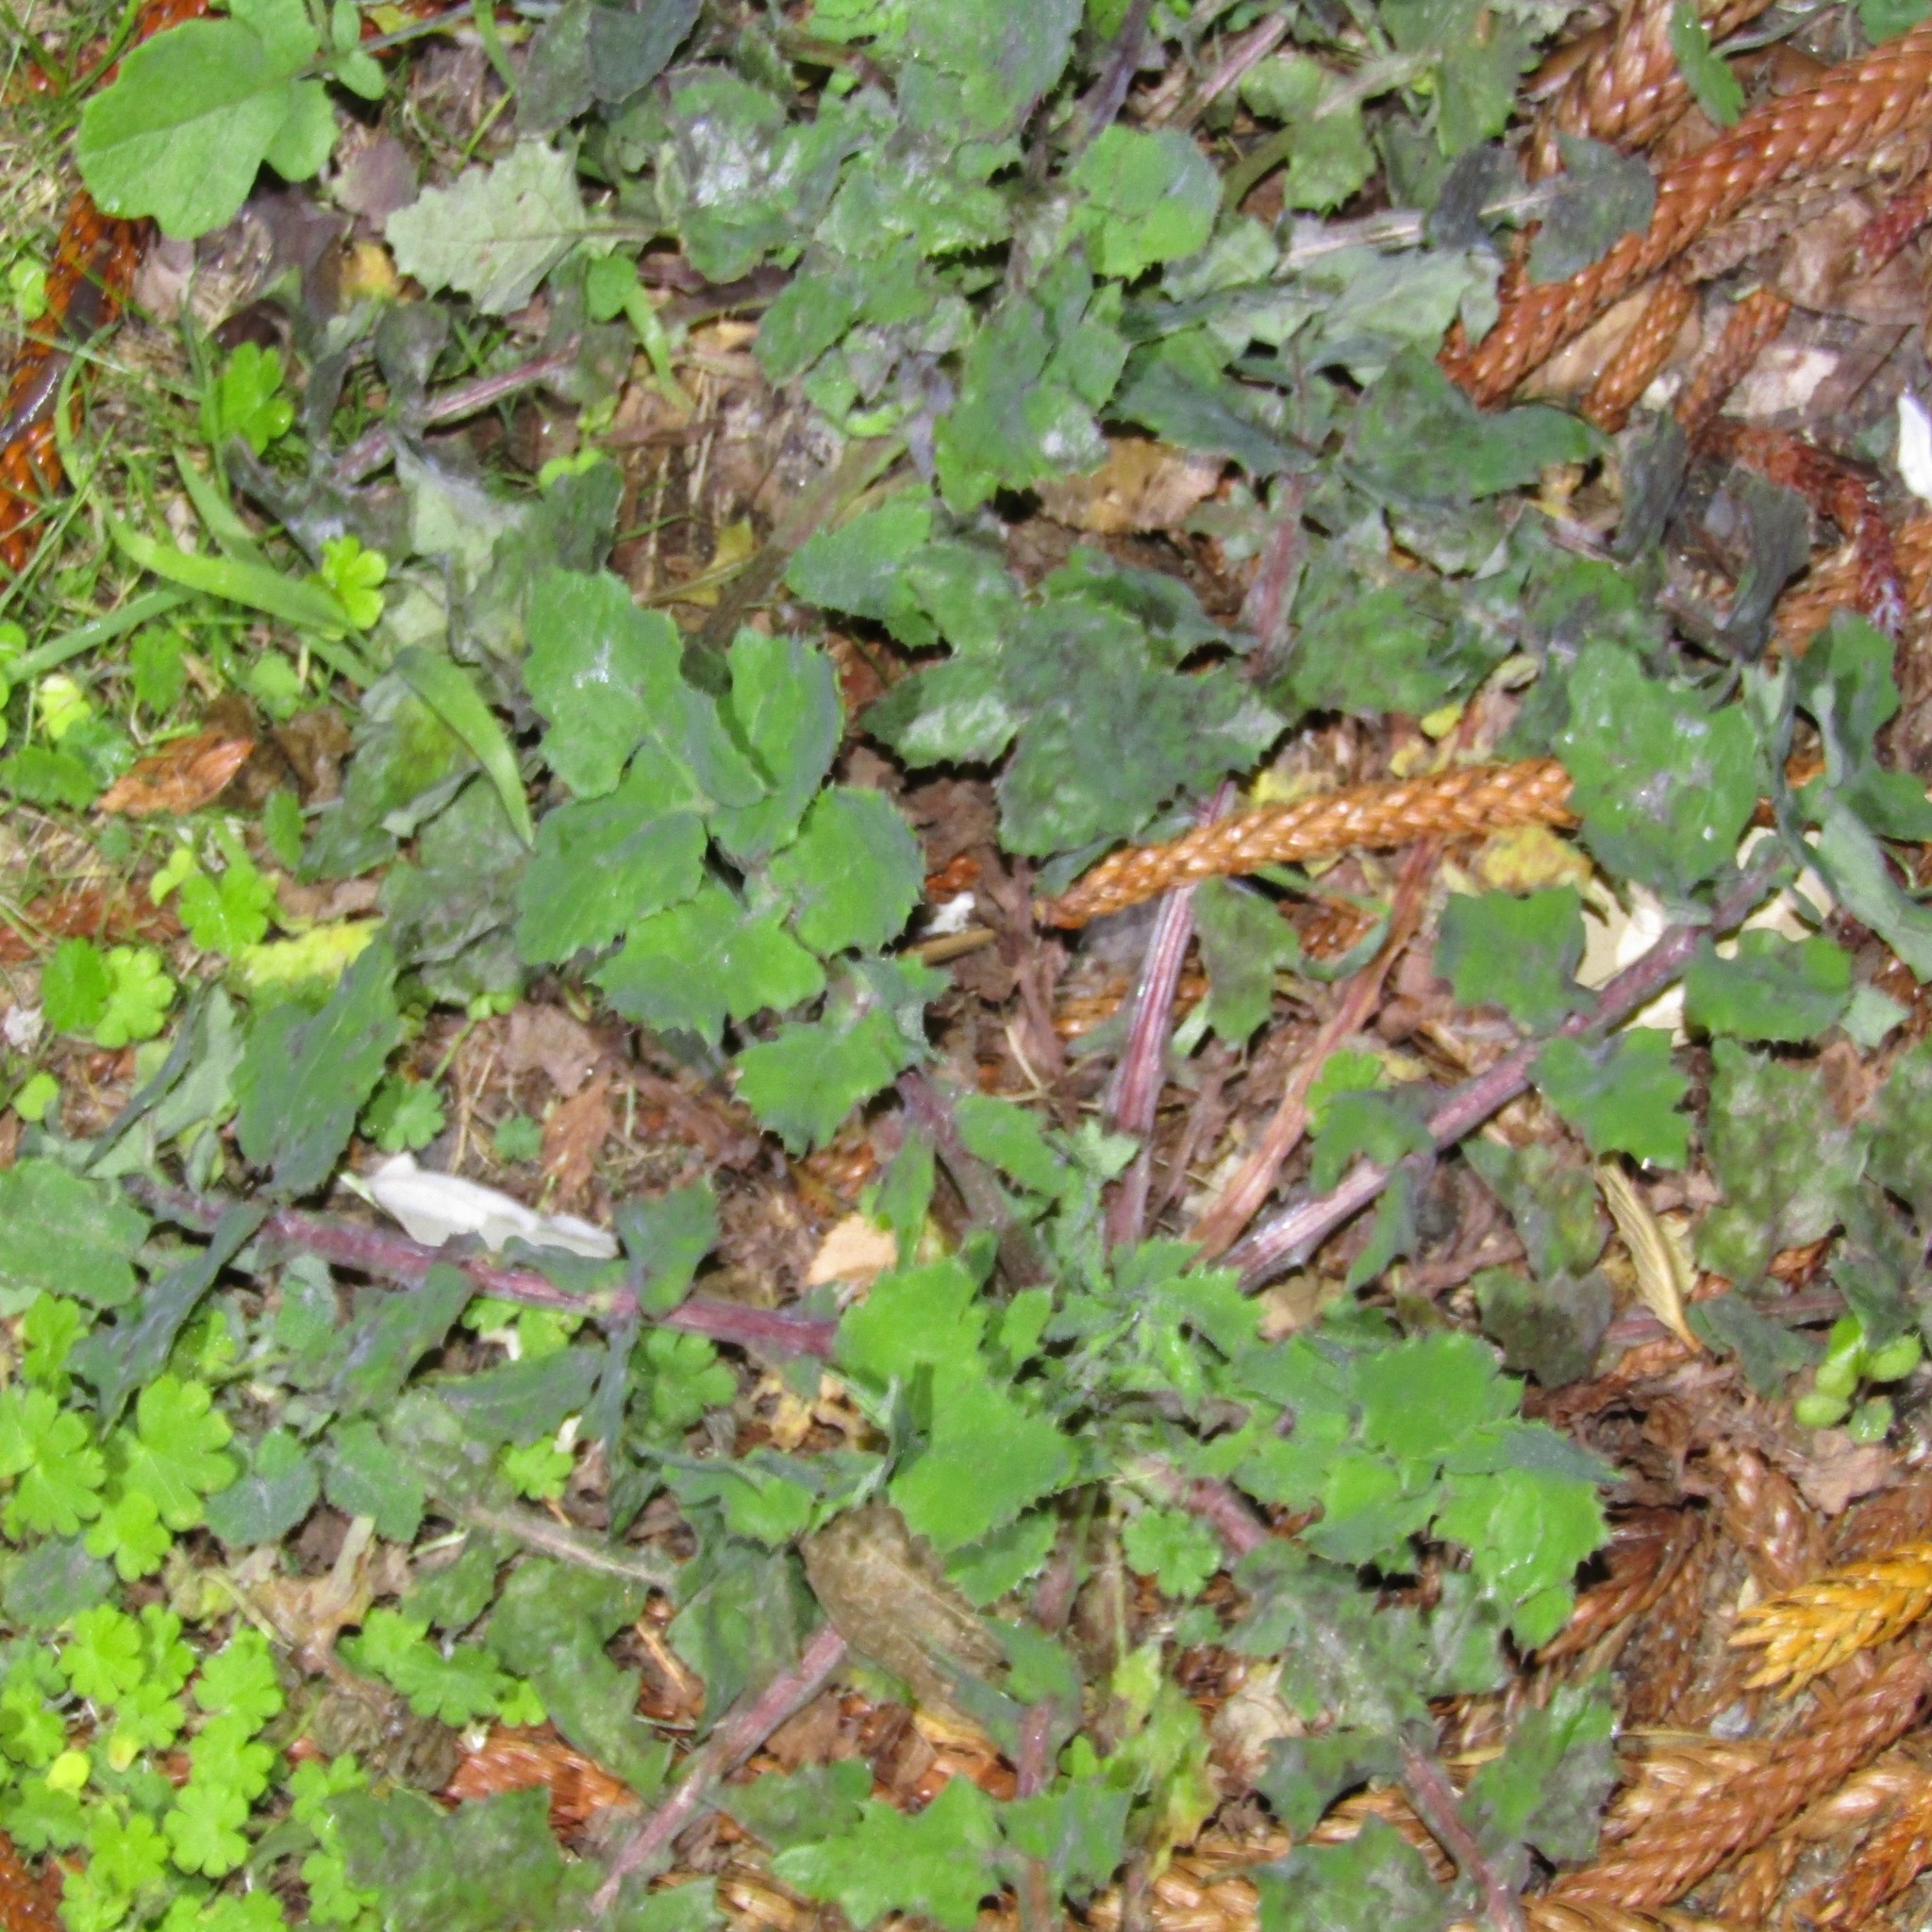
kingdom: Plantae
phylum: Tracheophyta
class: Magnoliopsida
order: Asterales
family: Asteraceae
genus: Sonchus
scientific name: Sonchus oleraceus
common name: Common sowthistle
